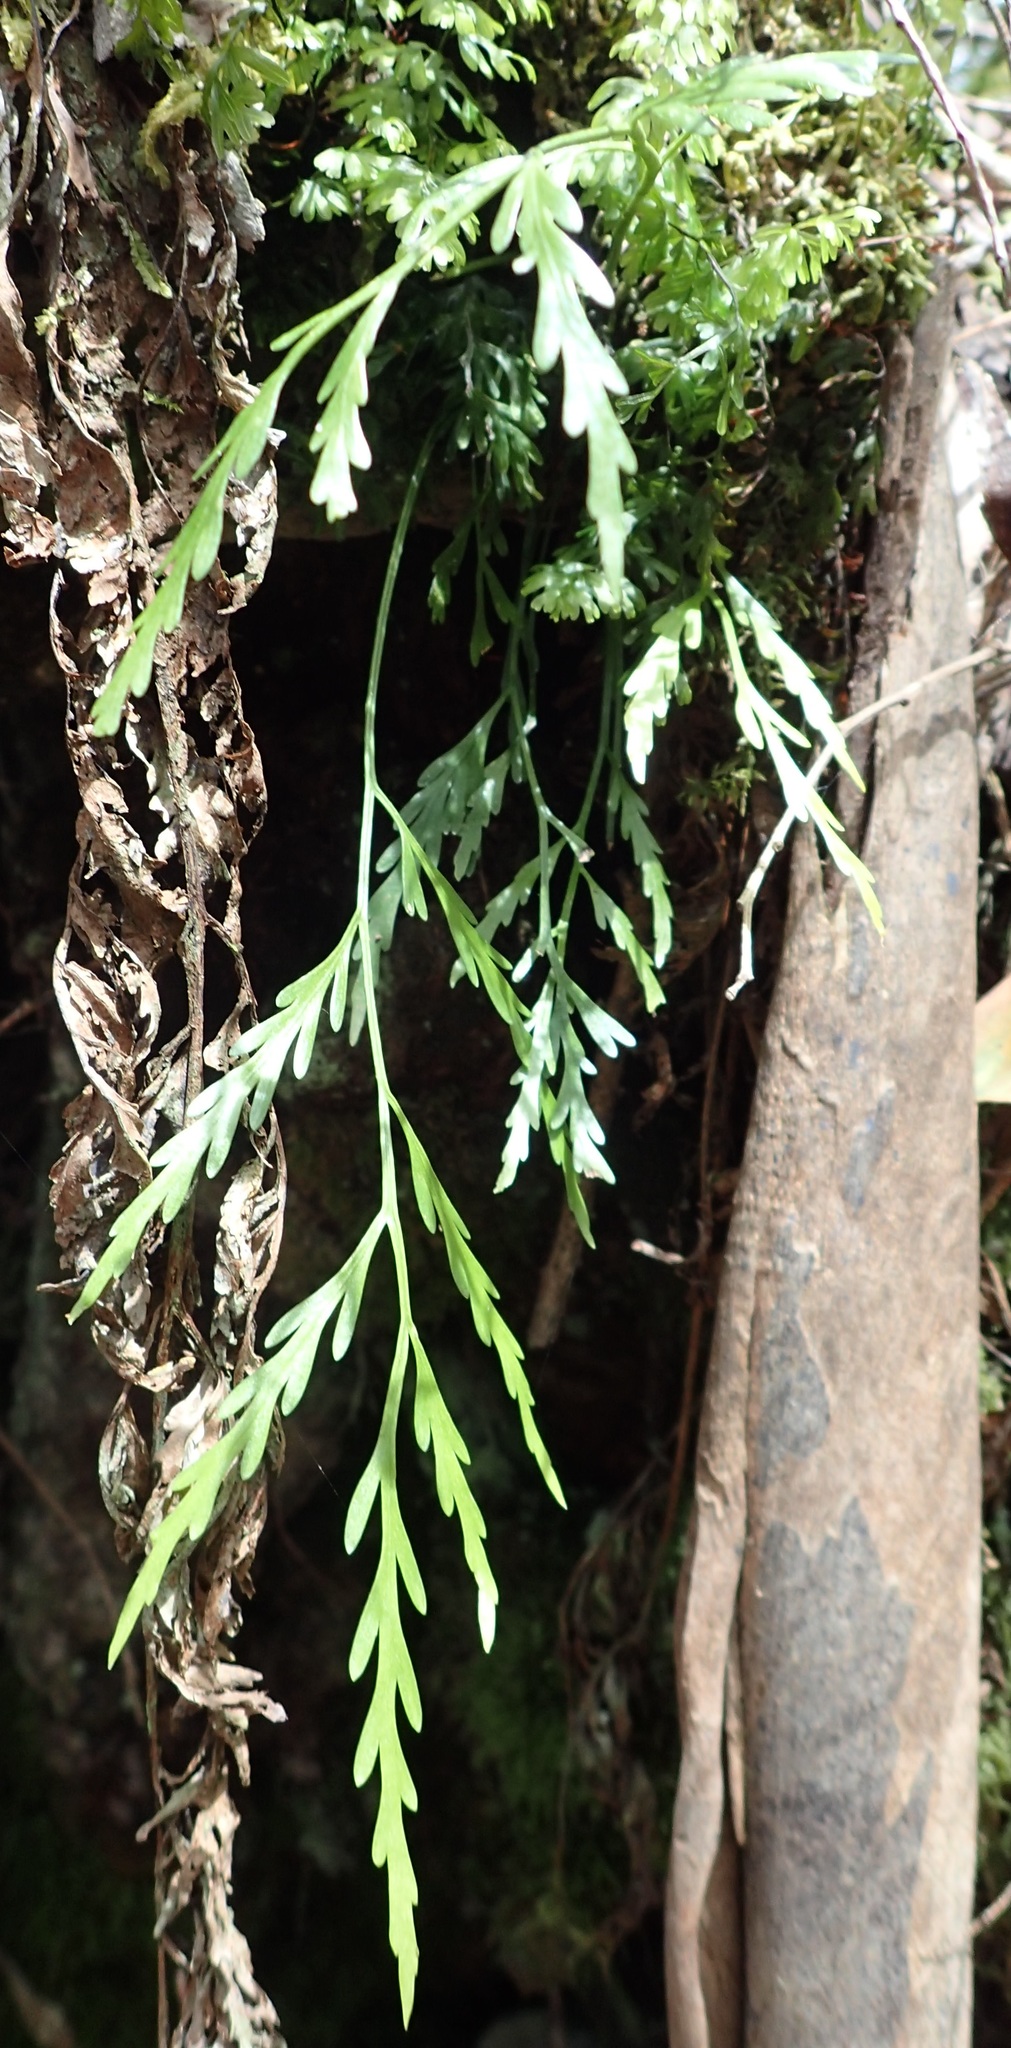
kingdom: Plantae
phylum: Tracheophyta
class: Polypodiopsida
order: Polypodiales
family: Aspleniaceae
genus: Asplenium
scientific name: Asplenium flaccidum
